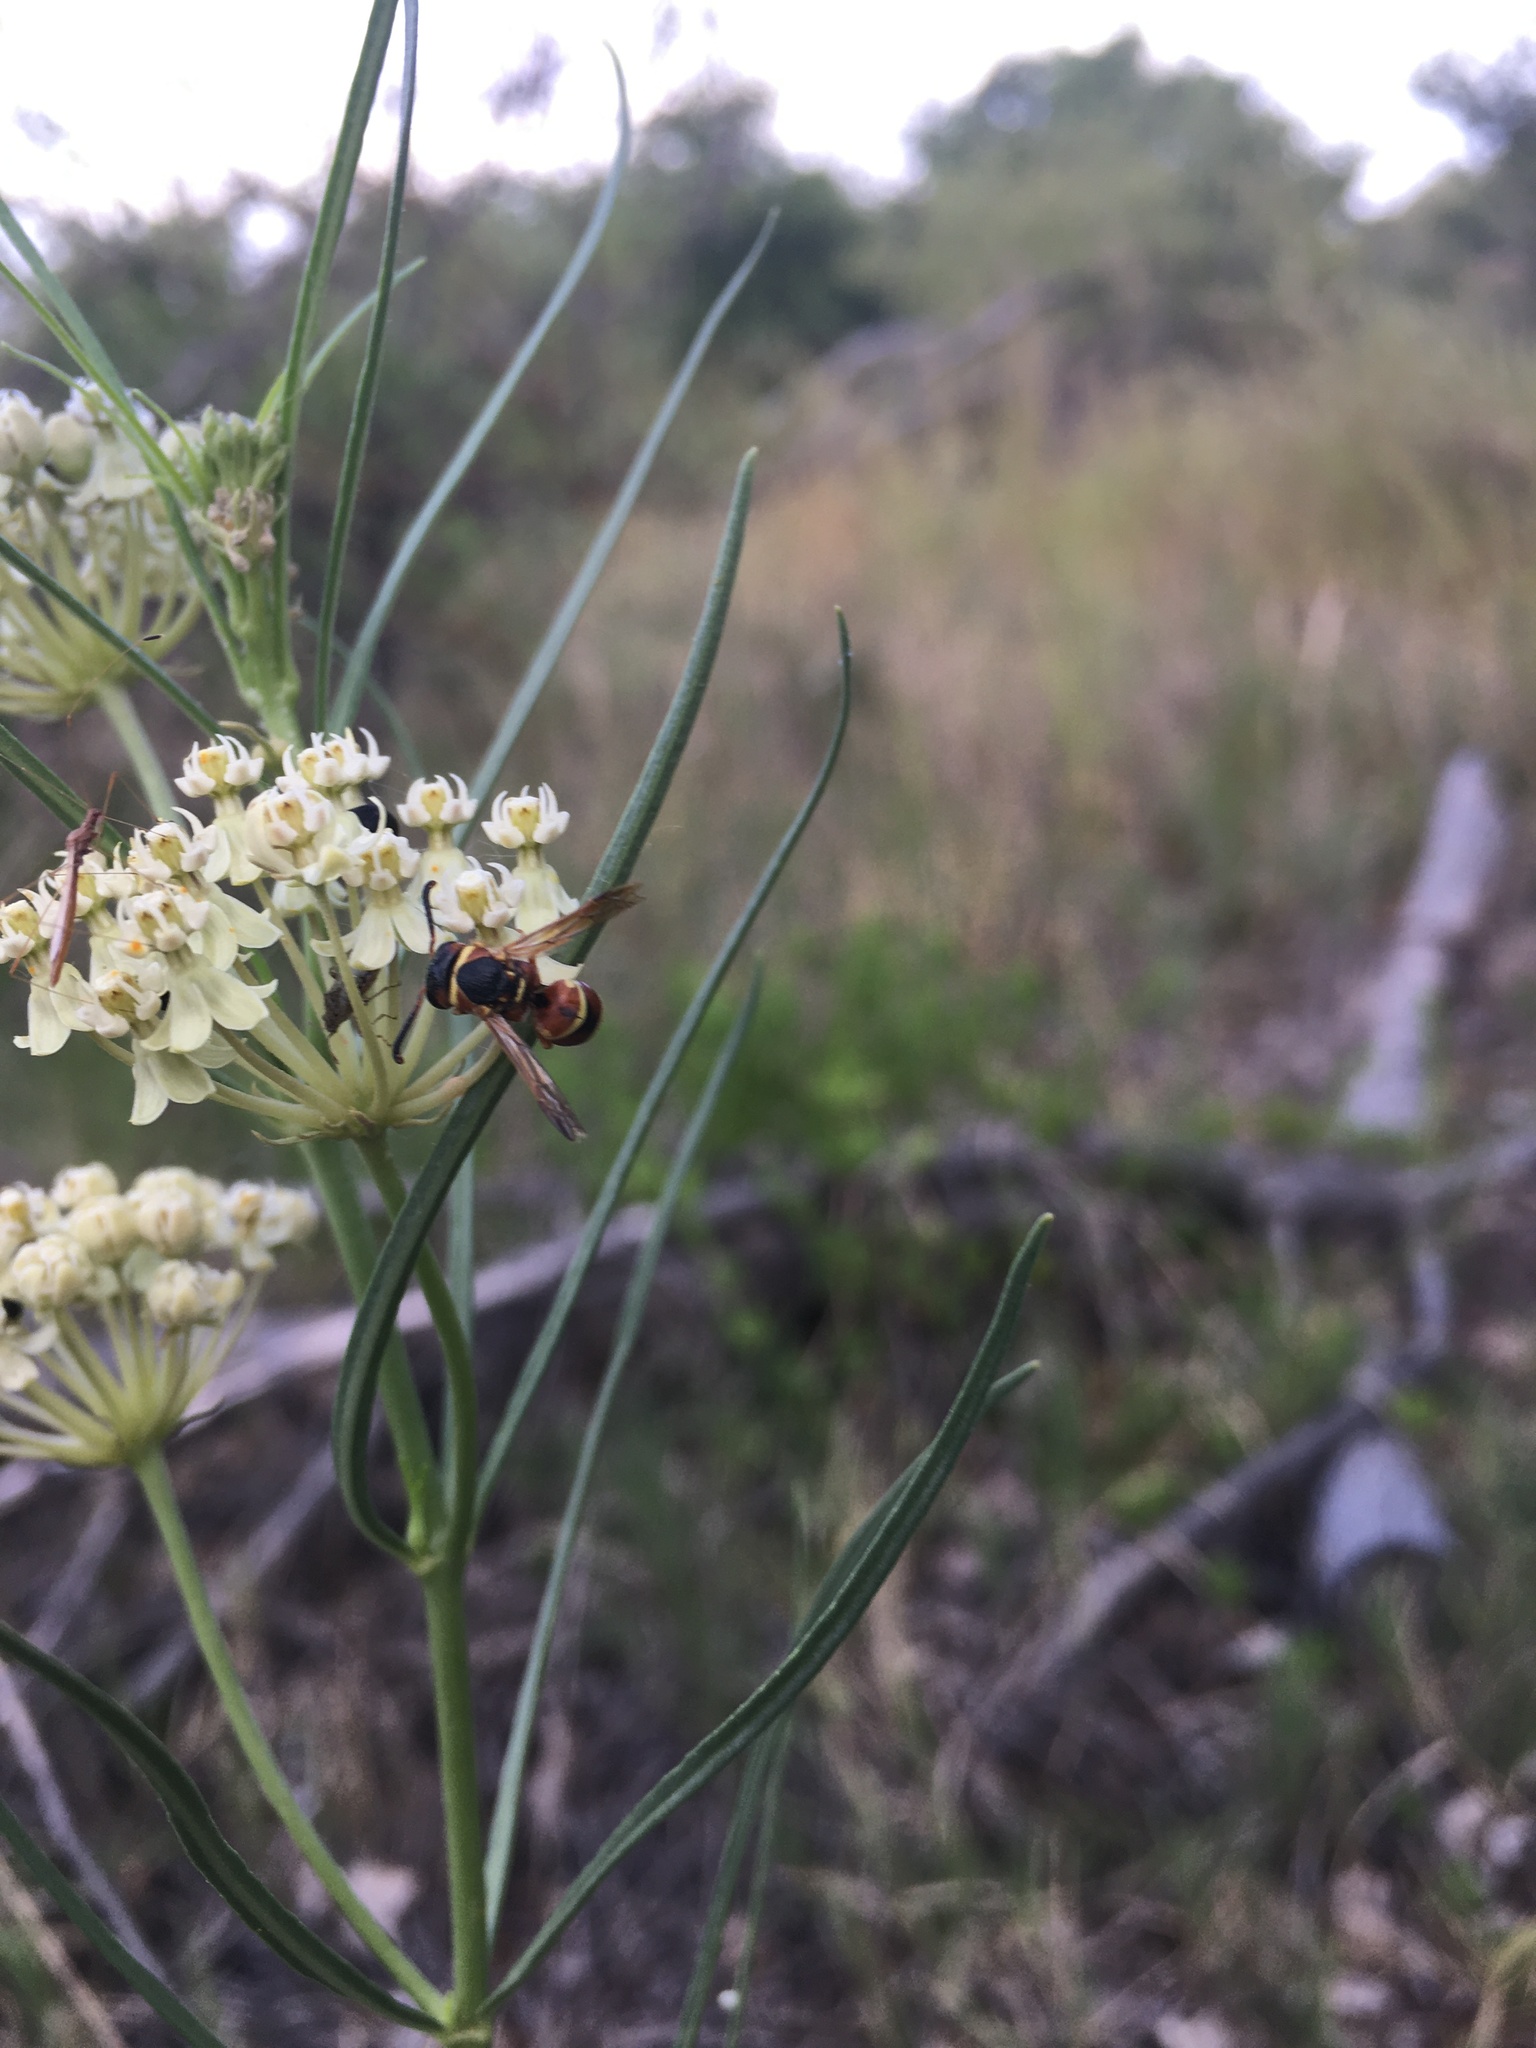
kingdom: Animalia
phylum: Arthropoda
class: Insecta
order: Hymenoptera
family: Eumenidae
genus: Euodynerus
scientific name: Euodynerus annulatus
